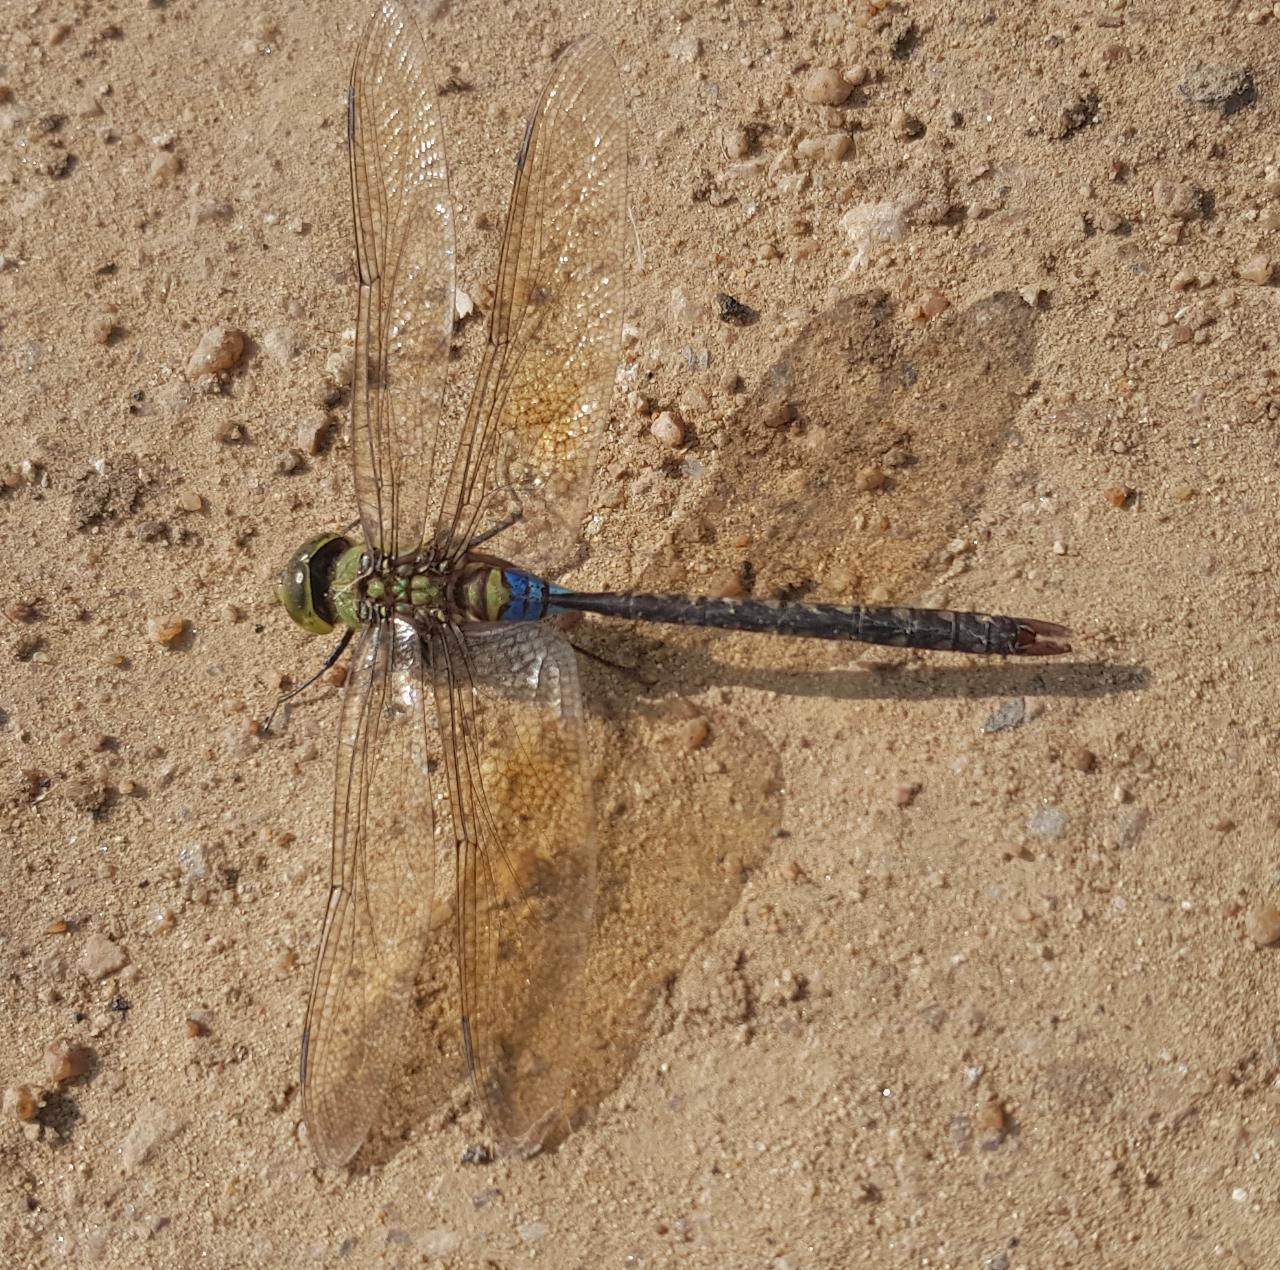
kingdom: Animalia
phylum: Arthropoda
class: Insecta
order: Odonata
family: Aeshnidae
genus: Anax
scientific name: Anax guttatus
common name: Emperor
